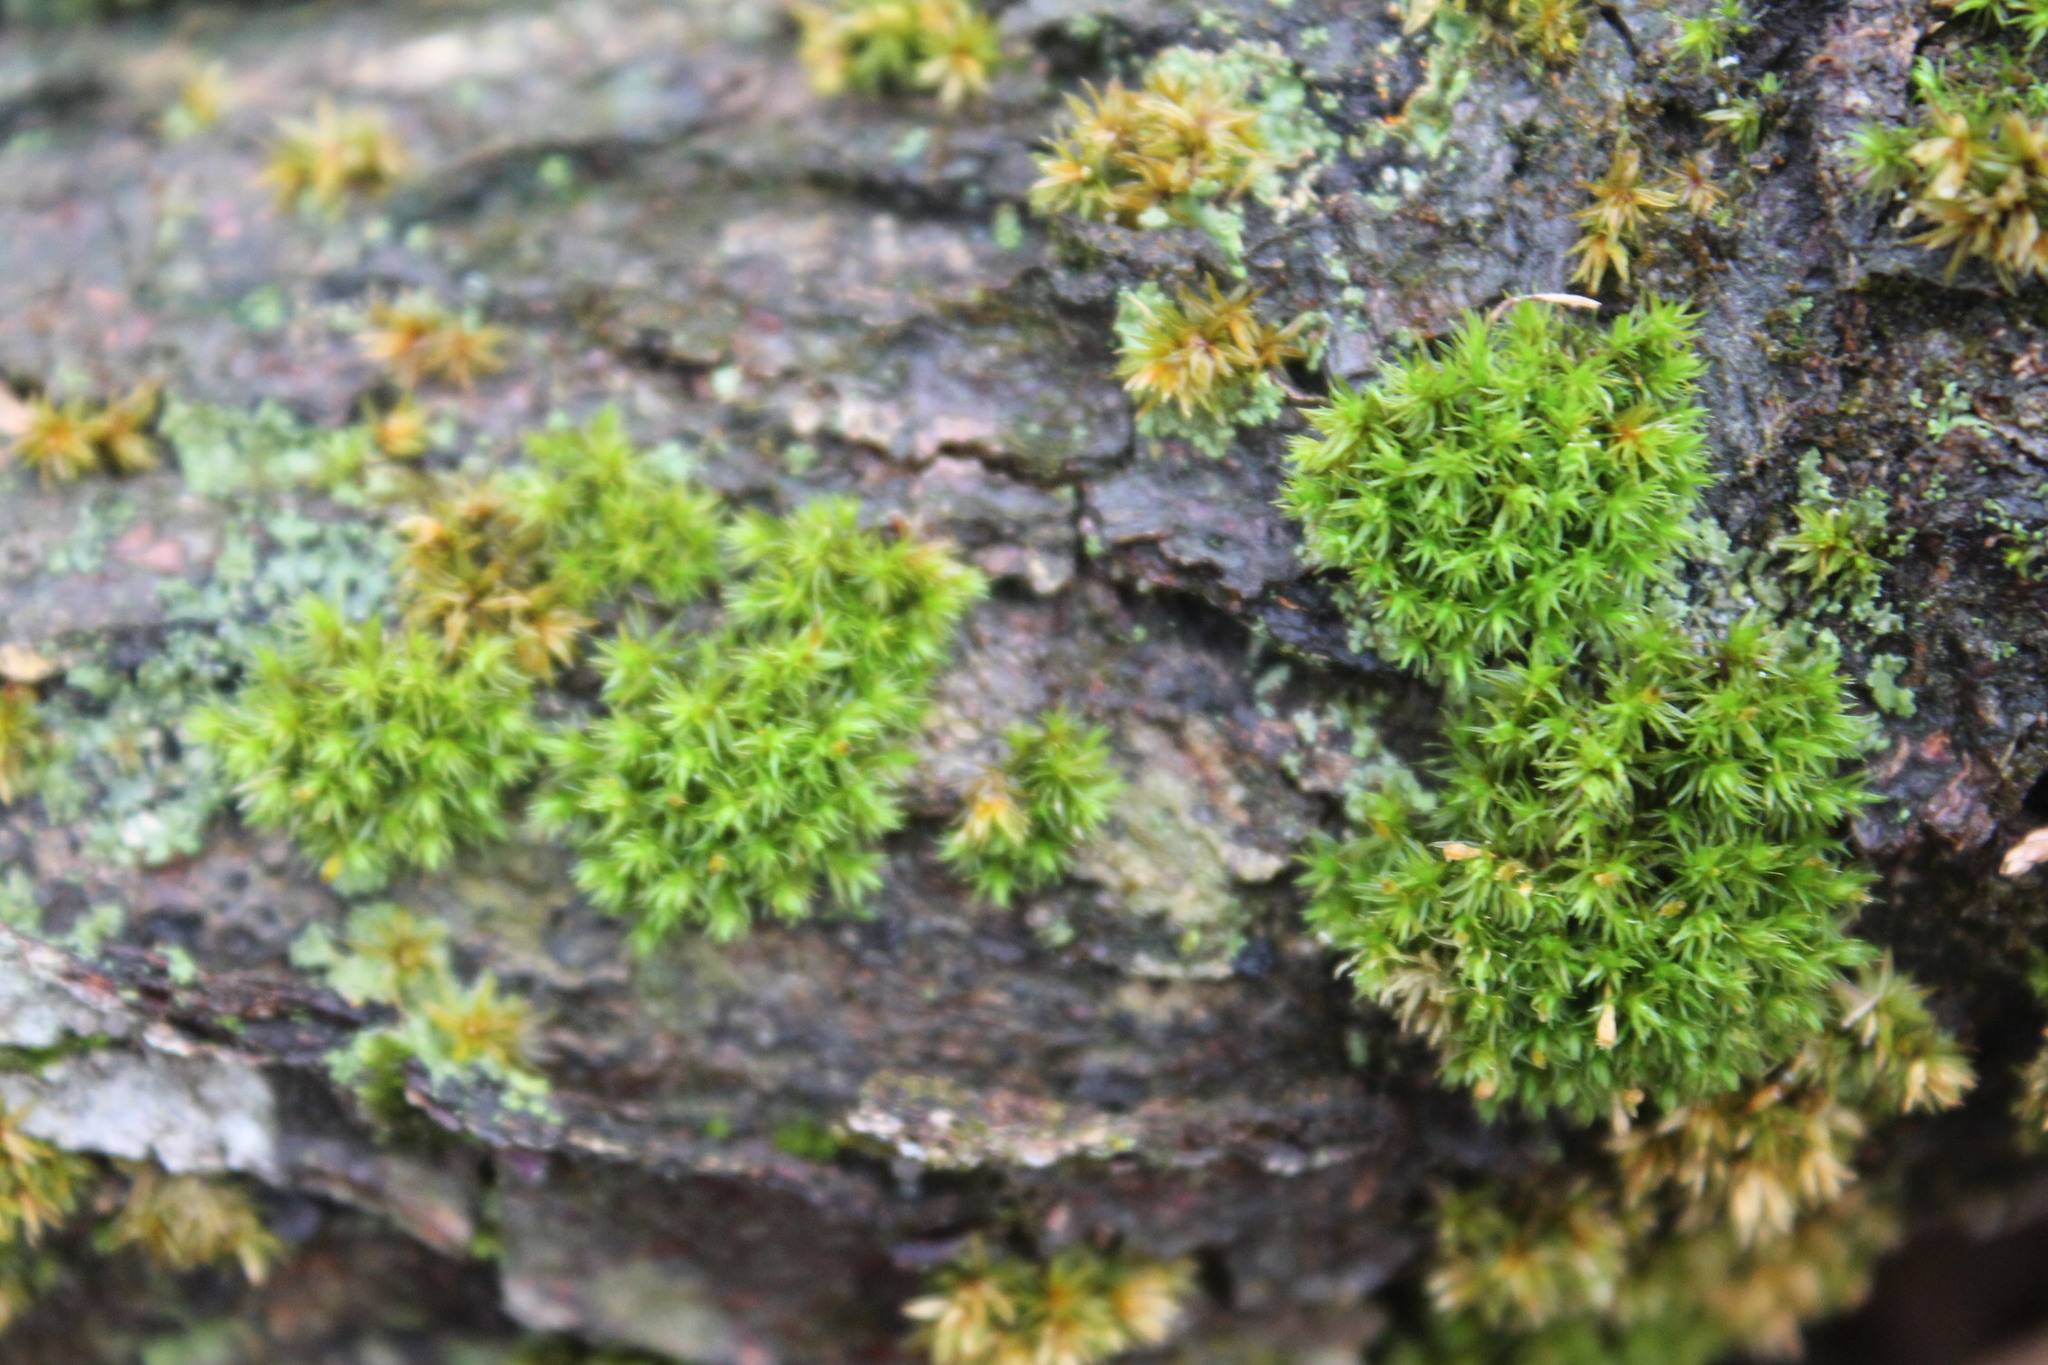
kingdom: Plantae
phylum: Bryophyta
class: Bryopsida
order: Orthotrichales
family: Orthotrichaceae
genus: Ulota
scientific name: Ulota crispa
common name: Crisped pincushion moss
